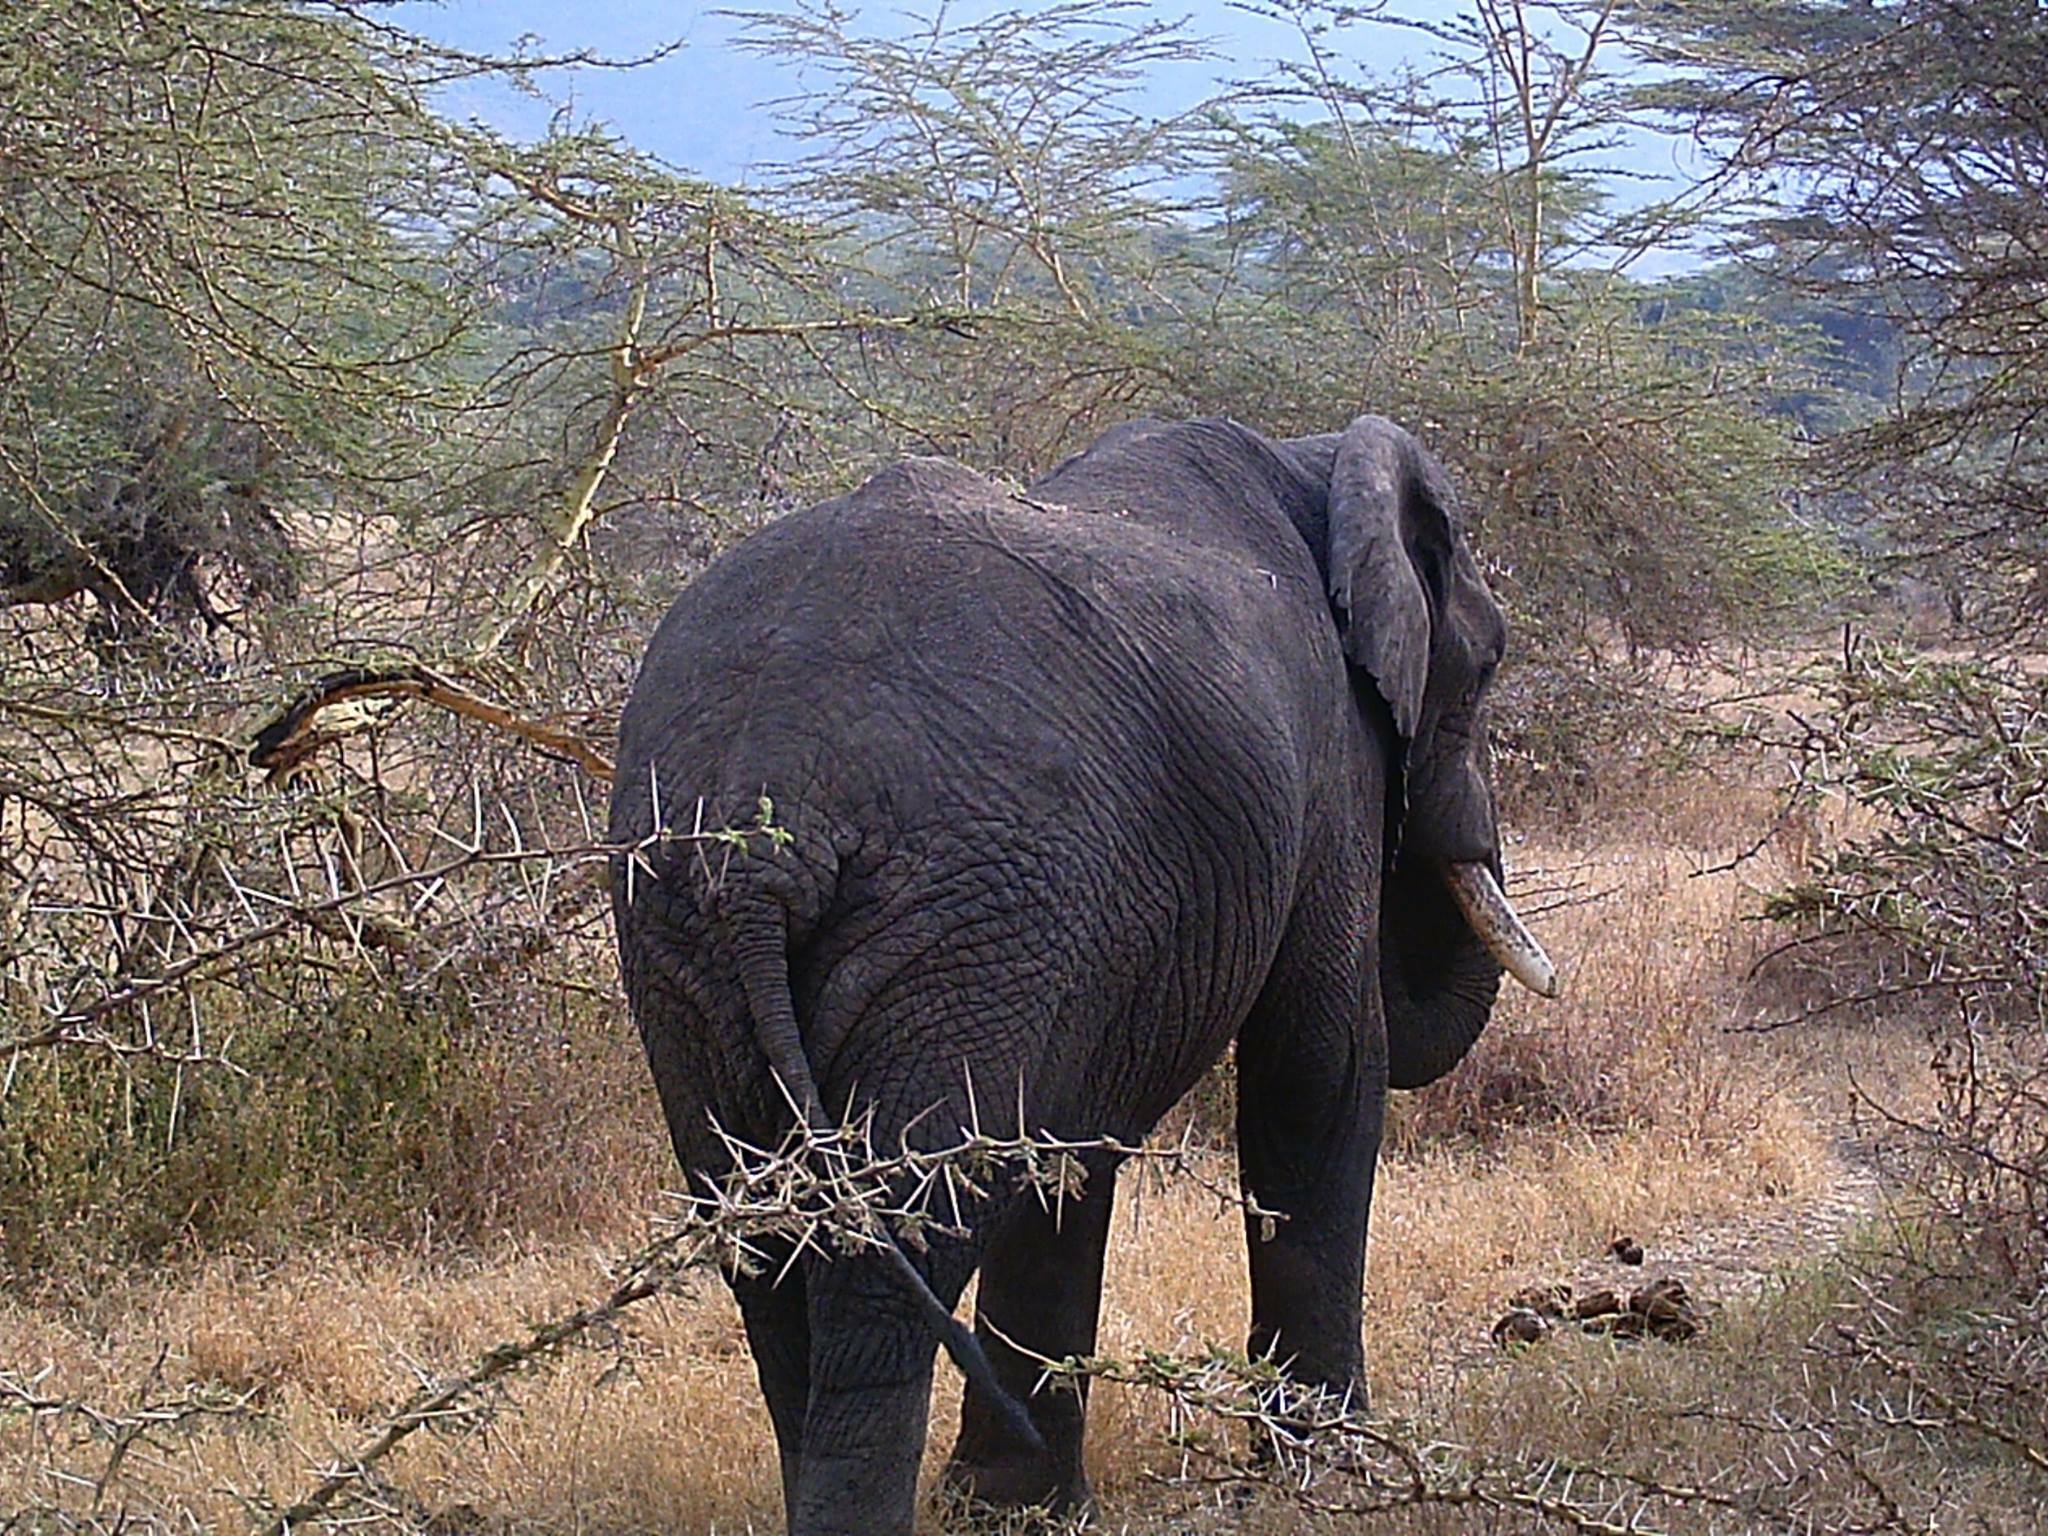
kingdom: Animalia
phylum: Chordata
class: Mammalia
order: Proboscidea
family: Elephantidae
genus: Loxodonta
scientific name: Loxodonta africana
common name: African elephant
